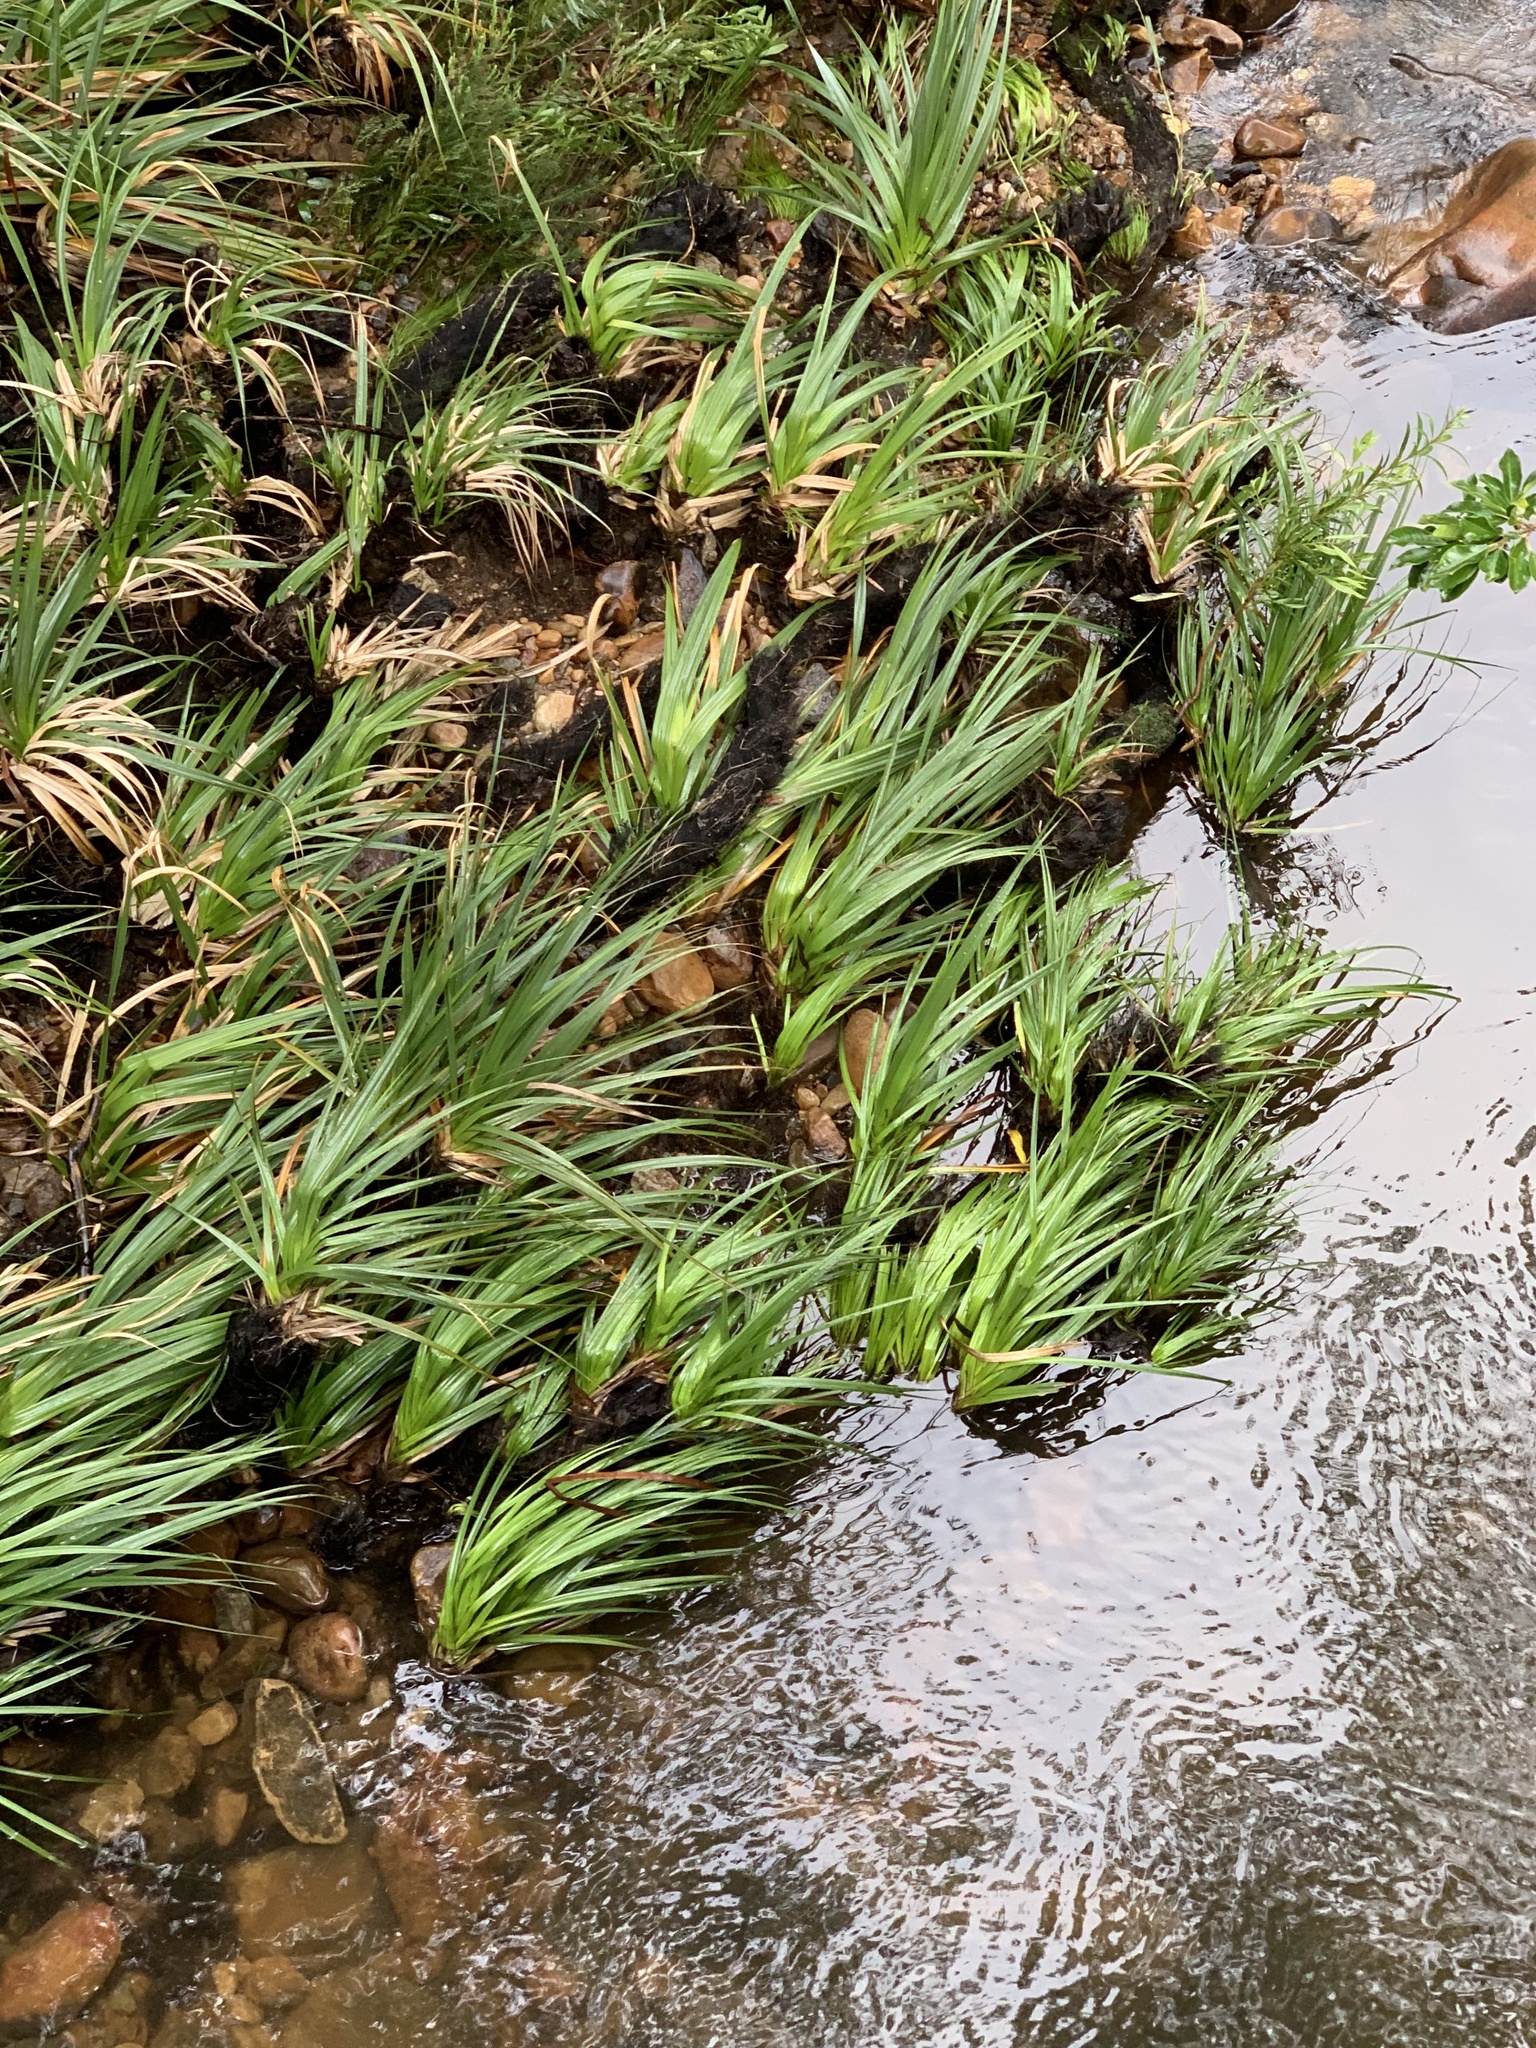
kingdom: Plantae
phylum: Tracheophyta
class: Liliopsida
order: Poales
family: Thurniaceae
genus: Prionium
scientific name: Prionium serratum
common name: Palmiet
